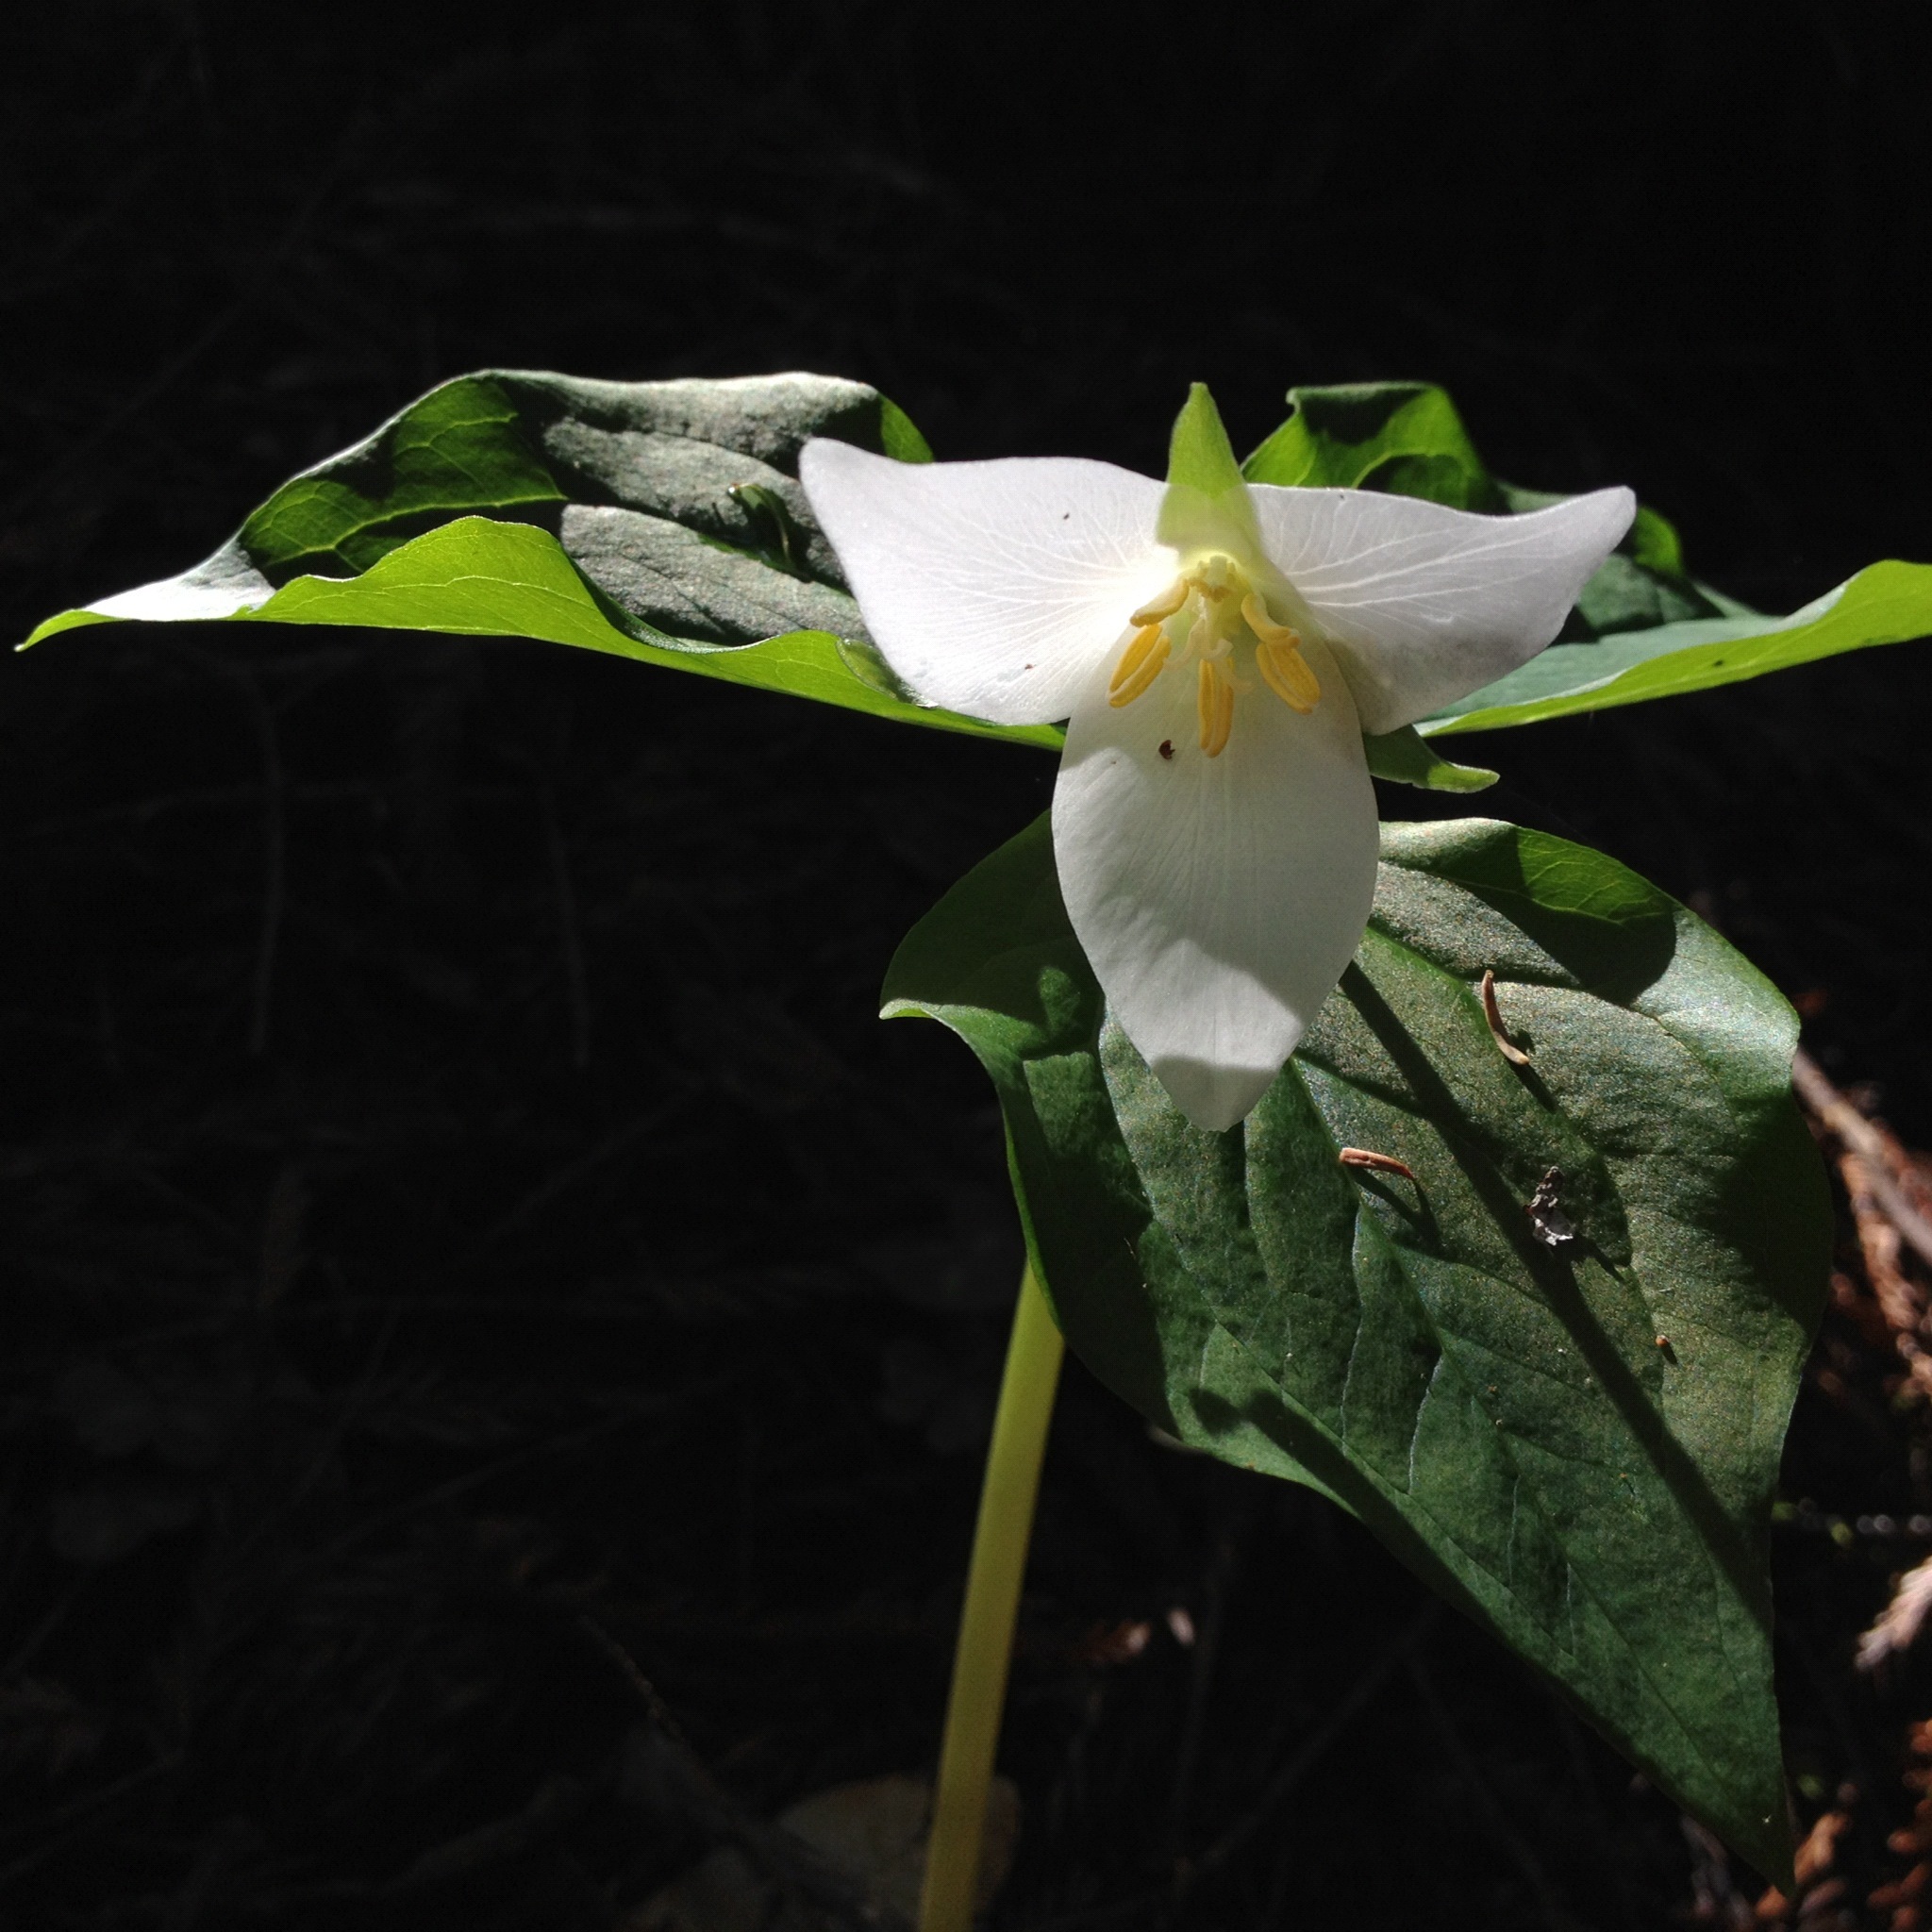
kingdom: Plantae
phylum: Tracheophyta
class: Liliopsida
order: Liliales
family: Melanthiaceae
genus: Trillium
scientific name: Trillium ovatum
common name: Pacific trillium
